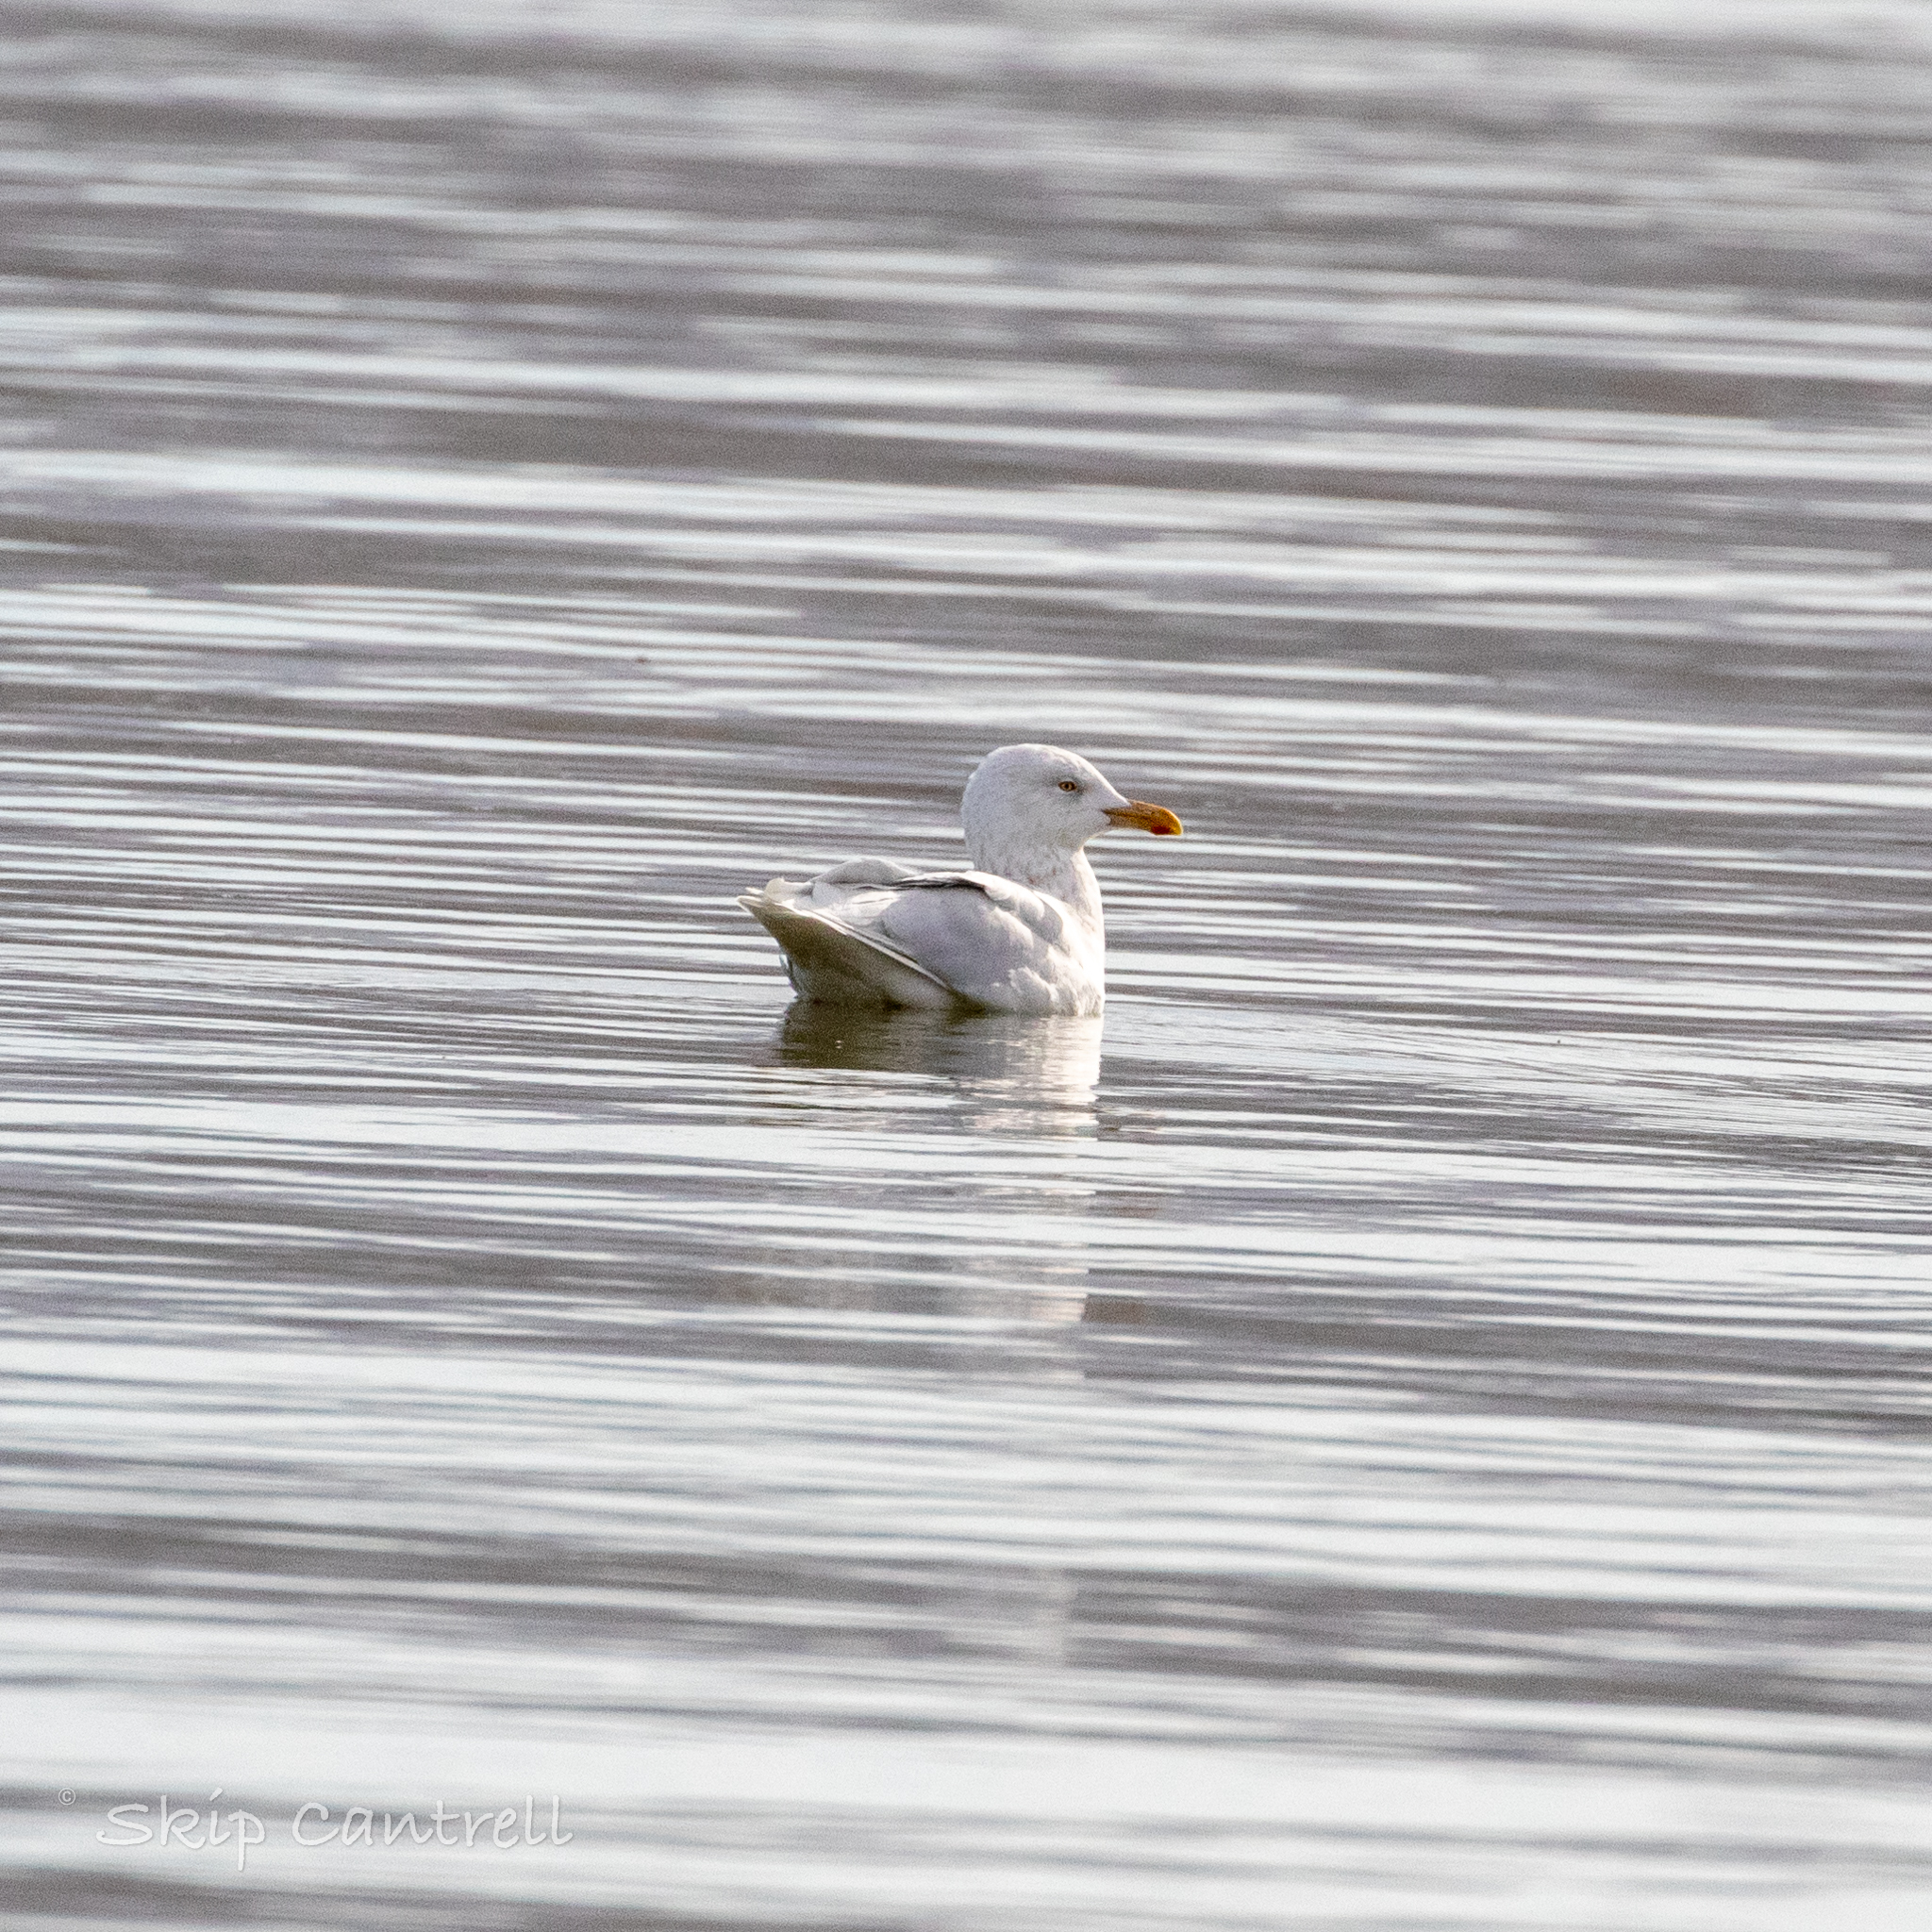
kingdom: Animalia
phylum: Chordata
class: Aves
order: Charadriiformes
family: Laridae
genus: Larus
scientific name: Larus hyperboreus
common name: Glaucous gull
